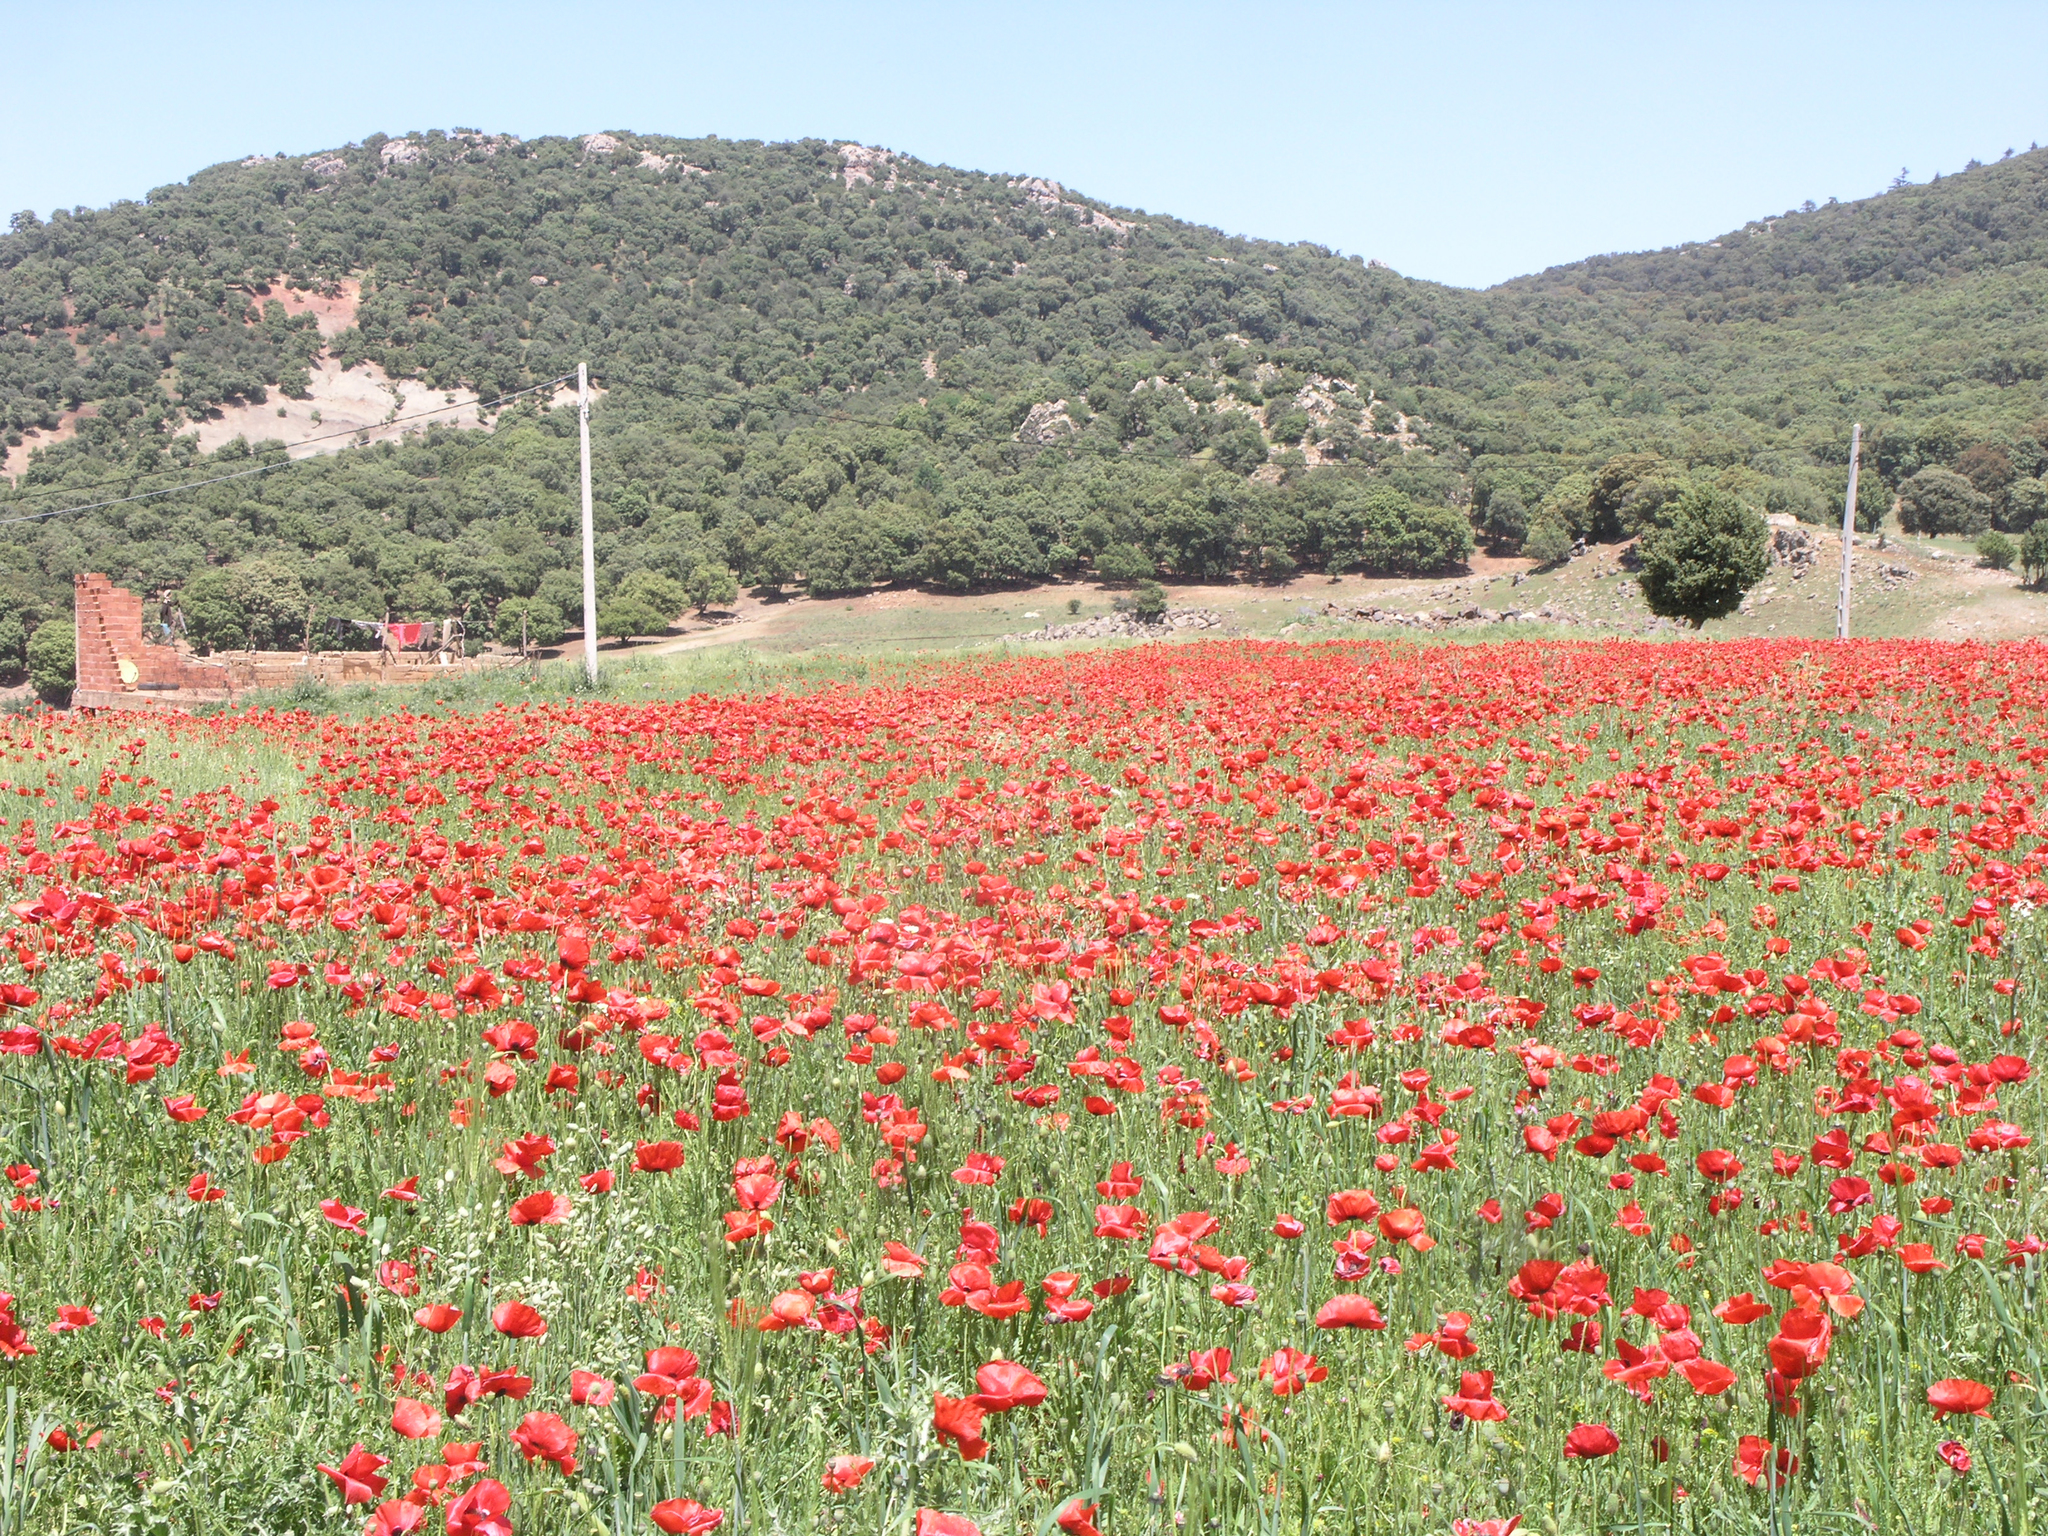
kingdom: Plantae
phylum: Tracheophyta
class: Magnoliopsida
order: Ranunculales
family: Papaveraceae
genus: Papaver
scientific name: Papaver rhoeas
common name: Corn poppy
